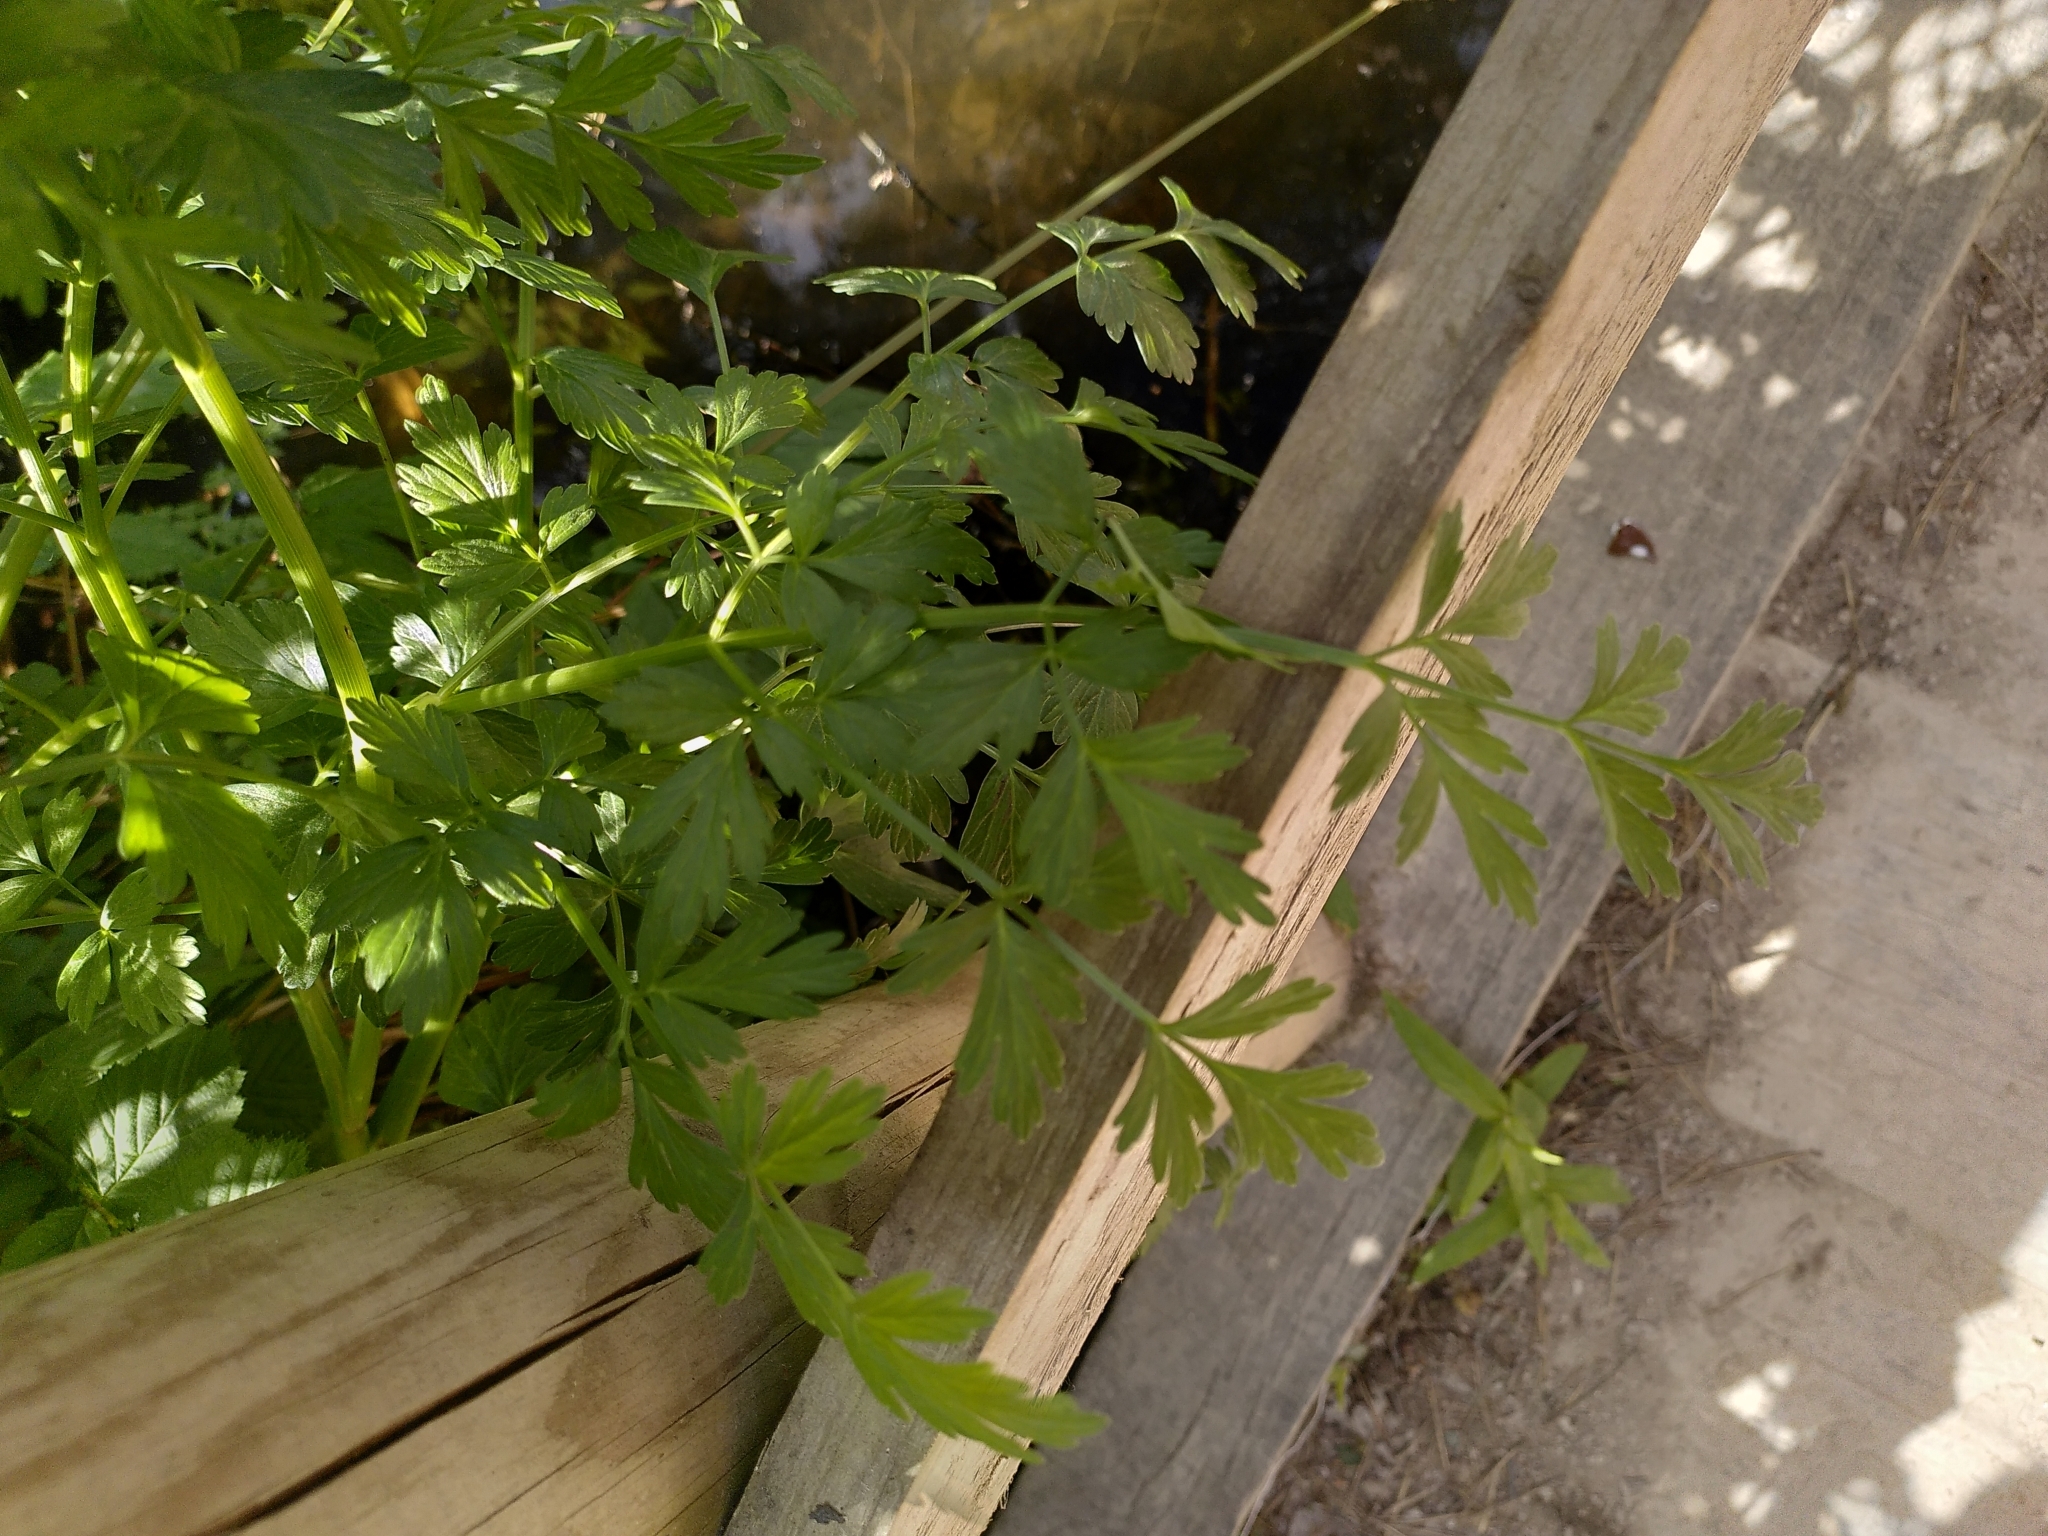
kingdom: Plantae
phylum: Tracheophyta
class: Magnoliopsida
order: Apiales
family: Apiaceae
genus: Oenanthe
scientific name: Oenanthe crocata
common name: Hemlock water-dropwort
